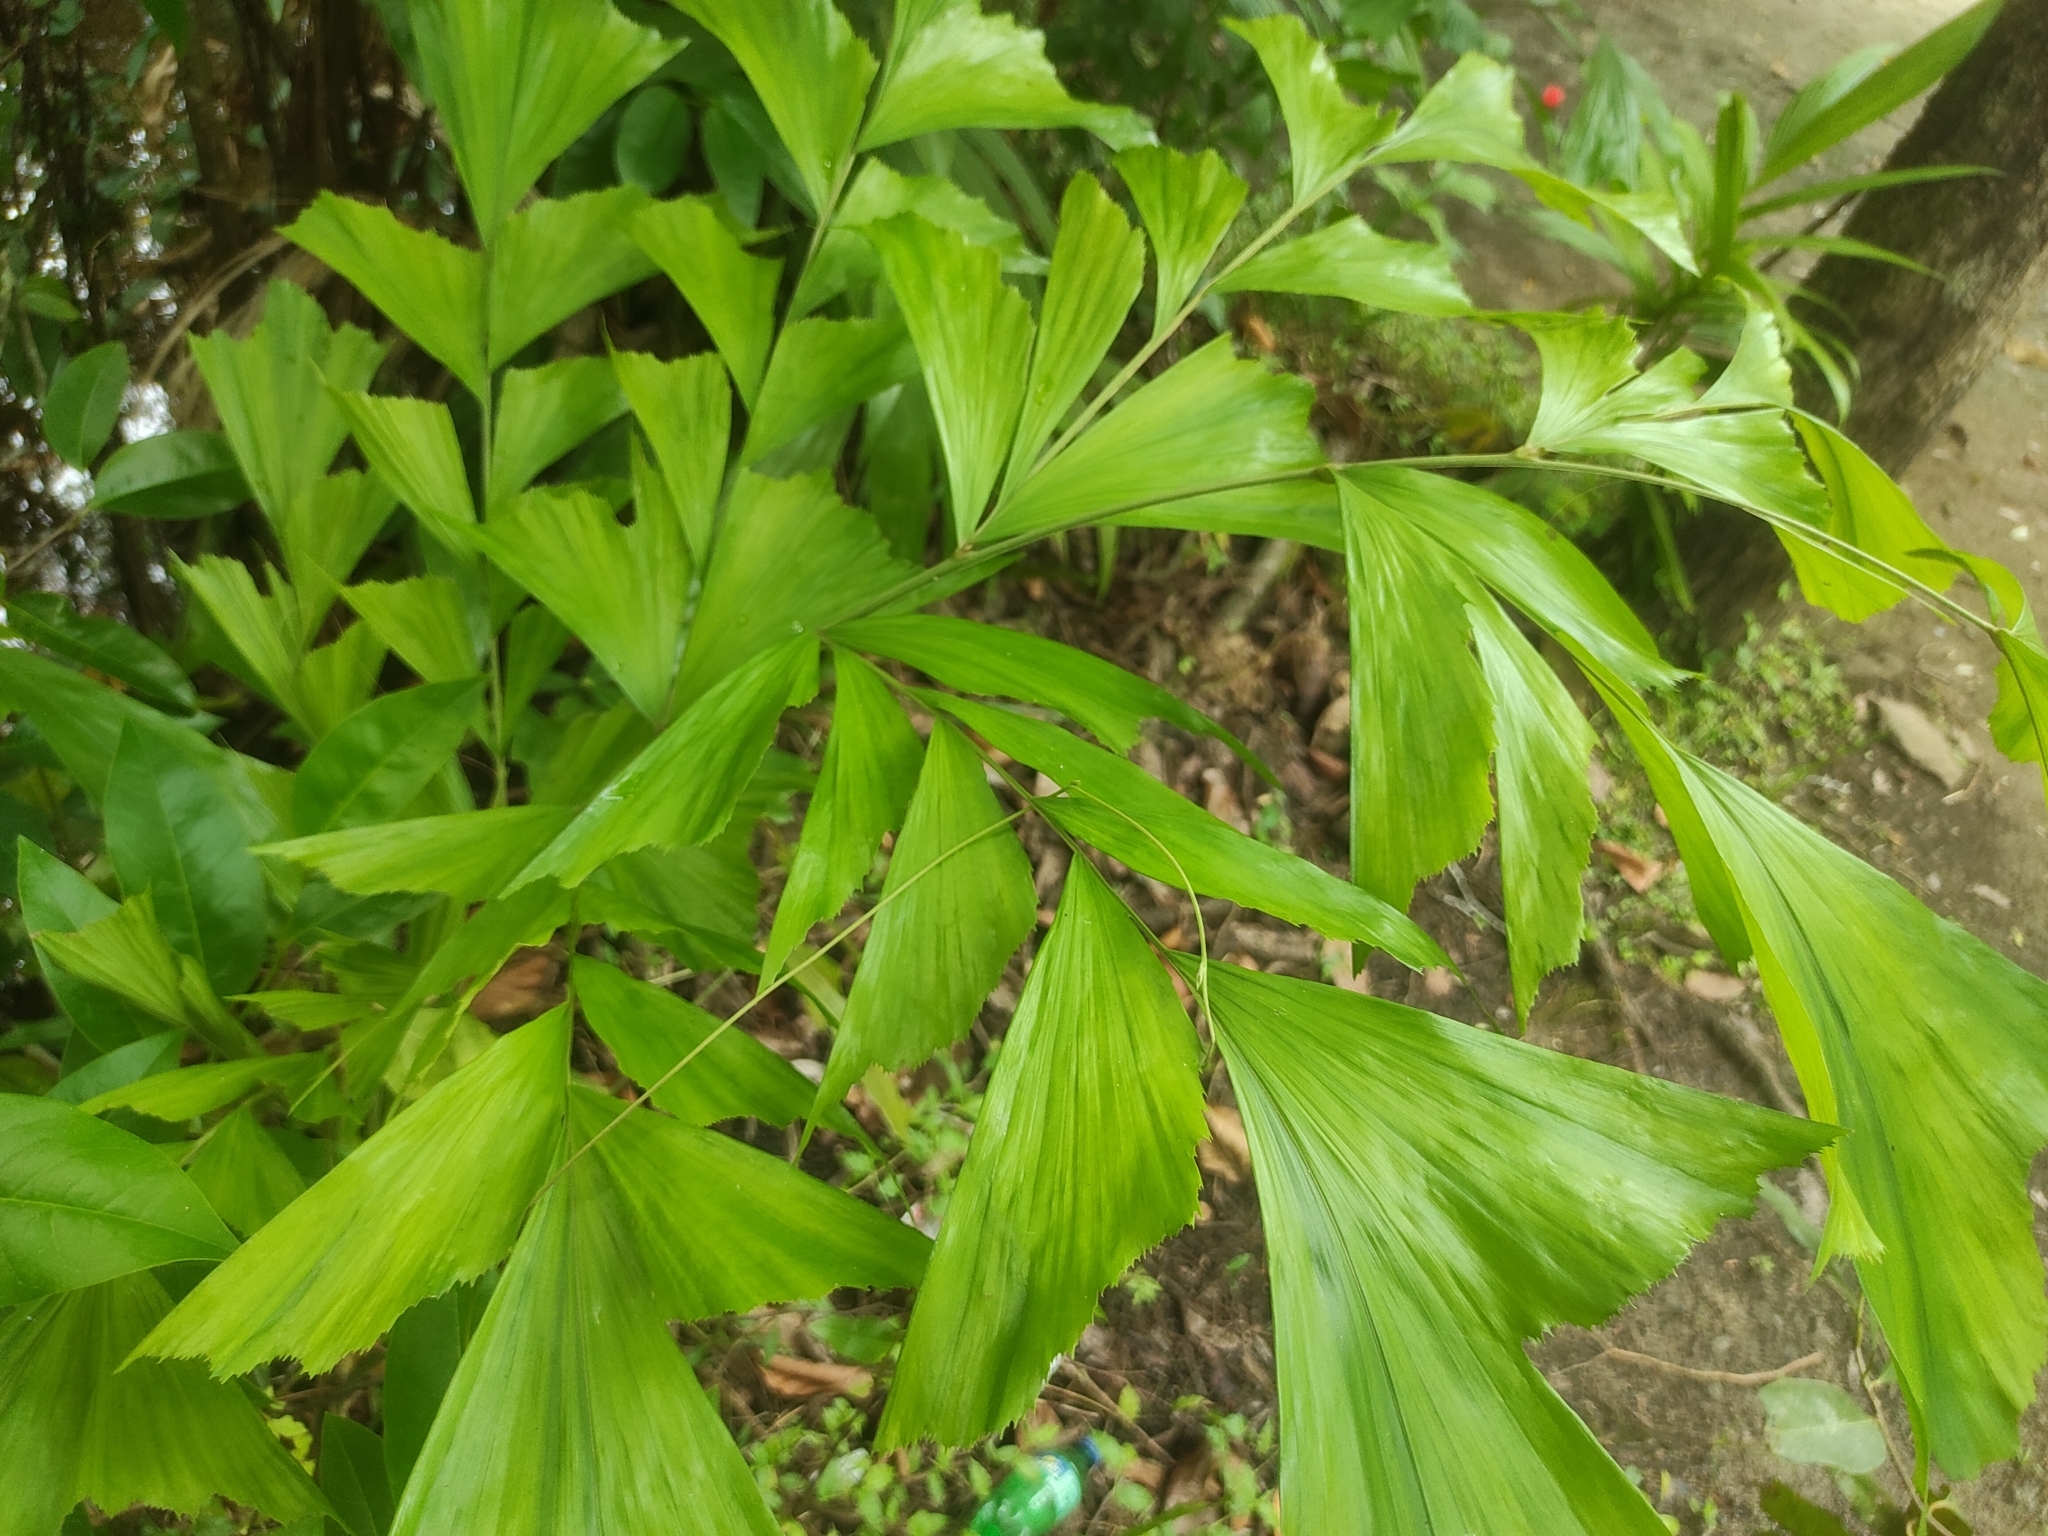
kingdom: Plantae
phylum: Tracheophyta
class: Liliopsida
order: Arecales
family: Arecaceae
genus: Caryota
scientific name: Caryota urens
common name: Jaggery palm
